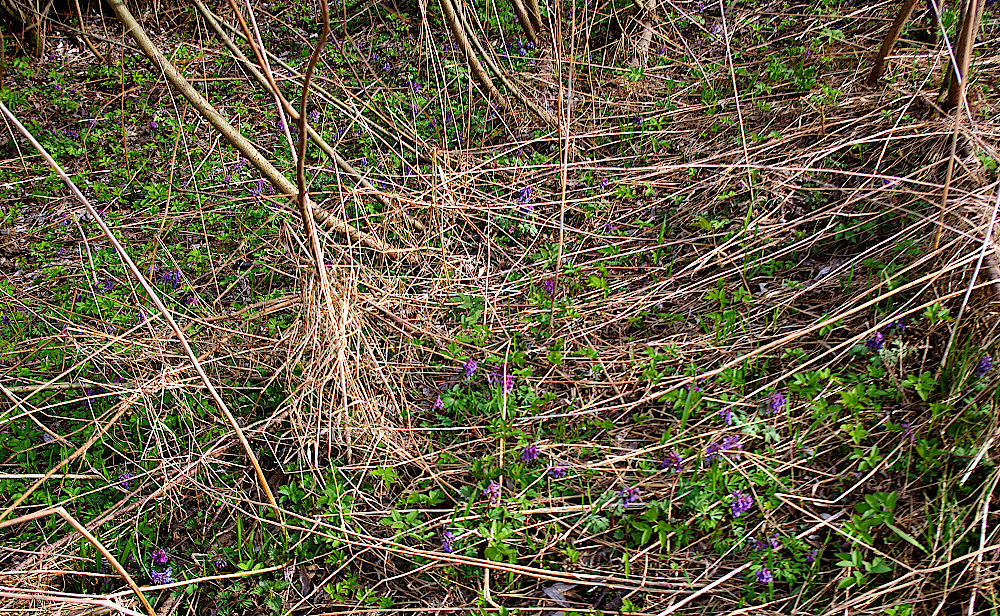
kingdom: Plantae
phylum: Tracheophyta
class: Magnoliopsida
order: Ranunculales
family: Papaveraceae
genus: Corydalis
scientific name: Corydalis solida
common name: Bird-in-a-bush
